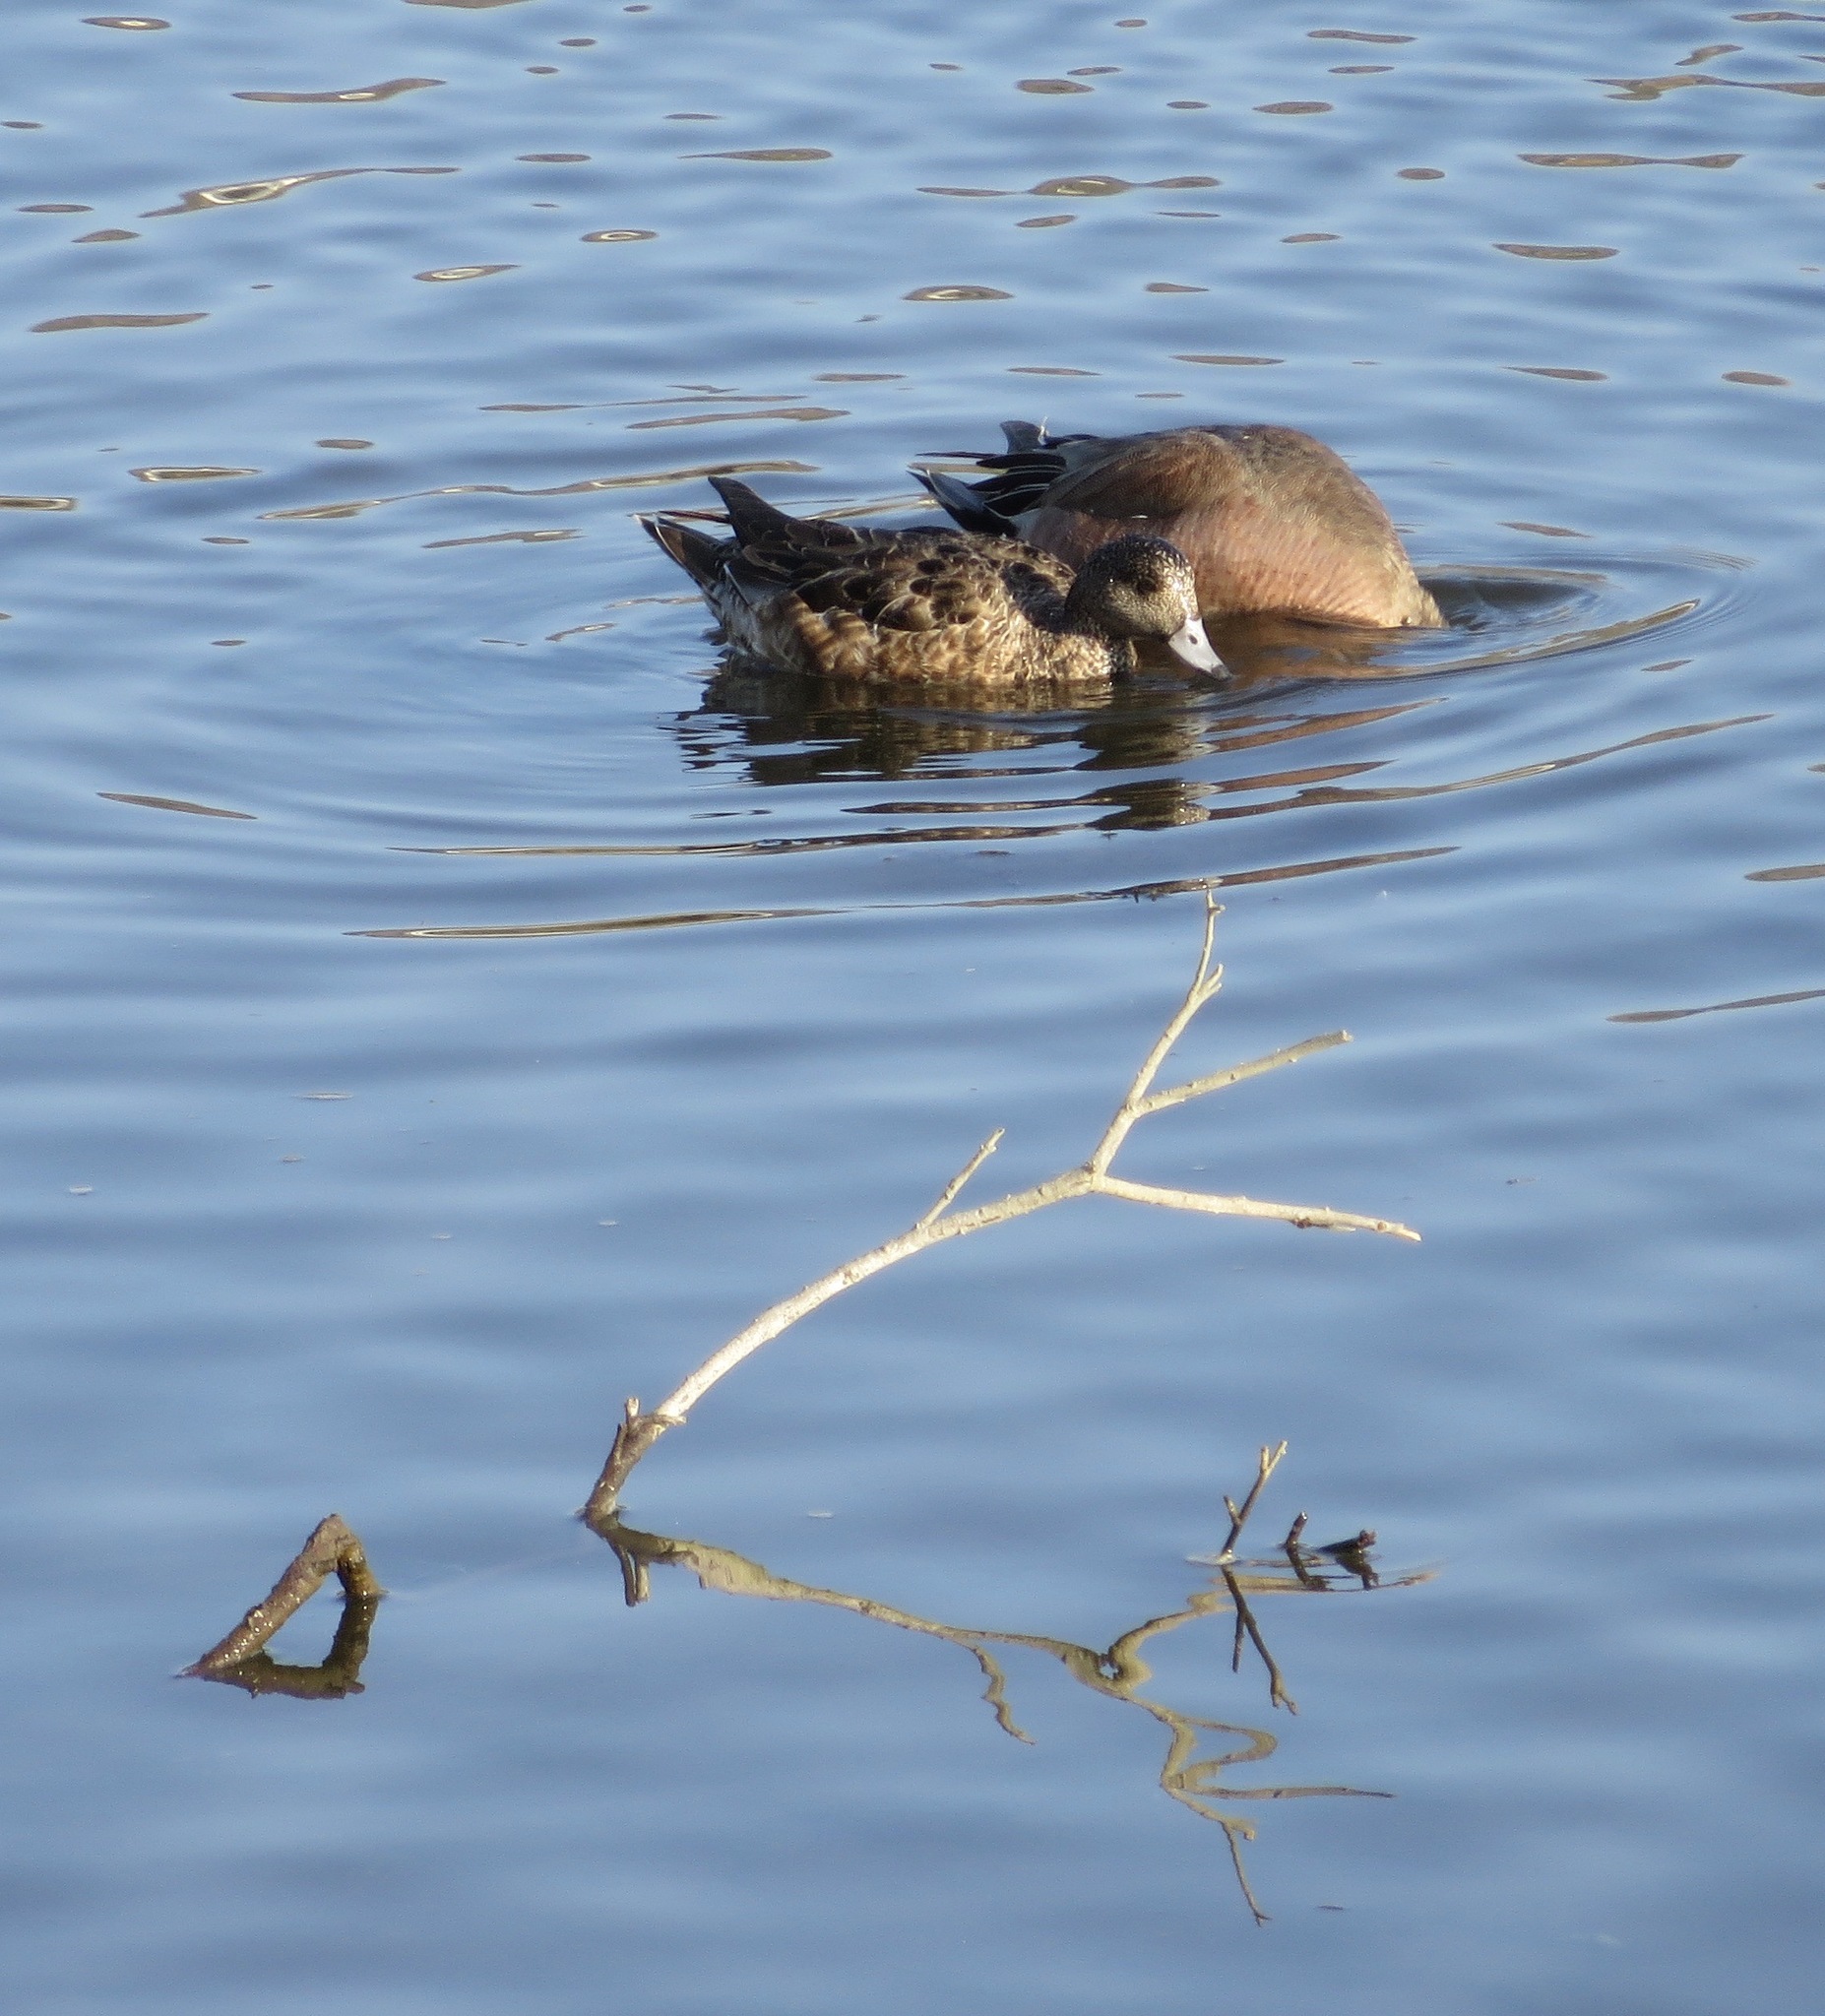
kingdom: Animalia
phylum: Chordata
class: Aves
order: Anseriformes
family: Anatidae
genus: Mareca
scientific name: Mareca americana
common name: American wigeon
